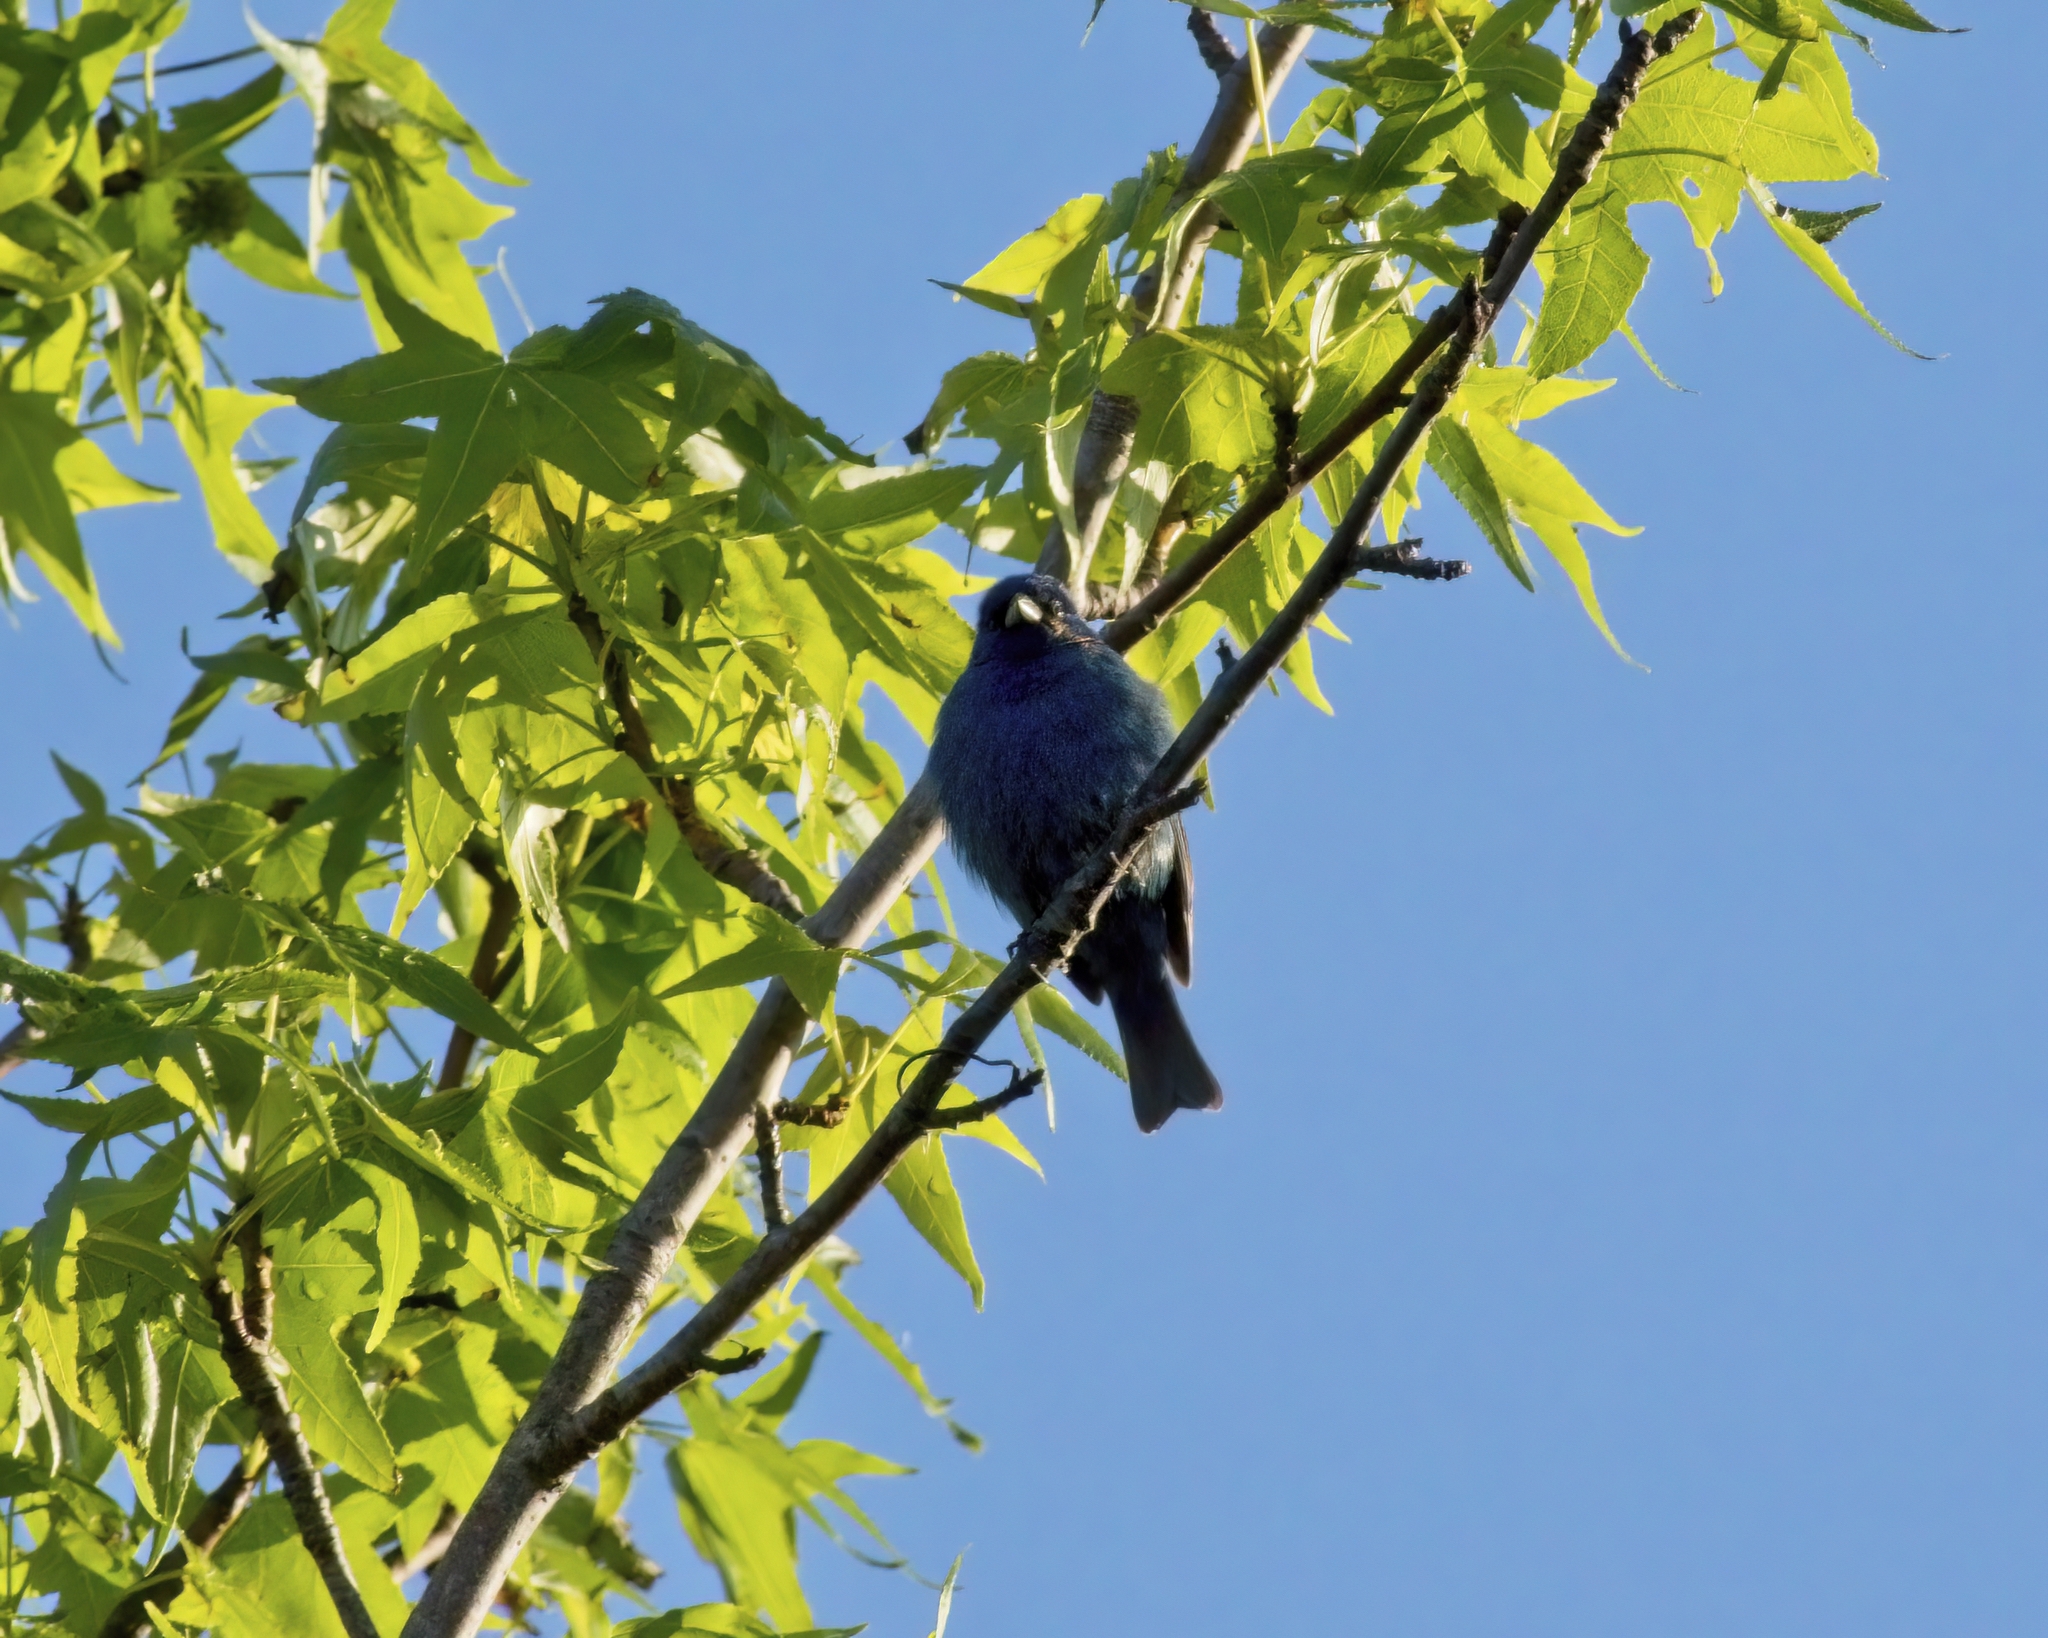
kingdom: Animalia
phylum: Chordata
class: Aves
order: Passeriformes
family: Cardinalidae
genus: Passerina
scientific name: Passerina cyanea
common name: Indigo bunting
